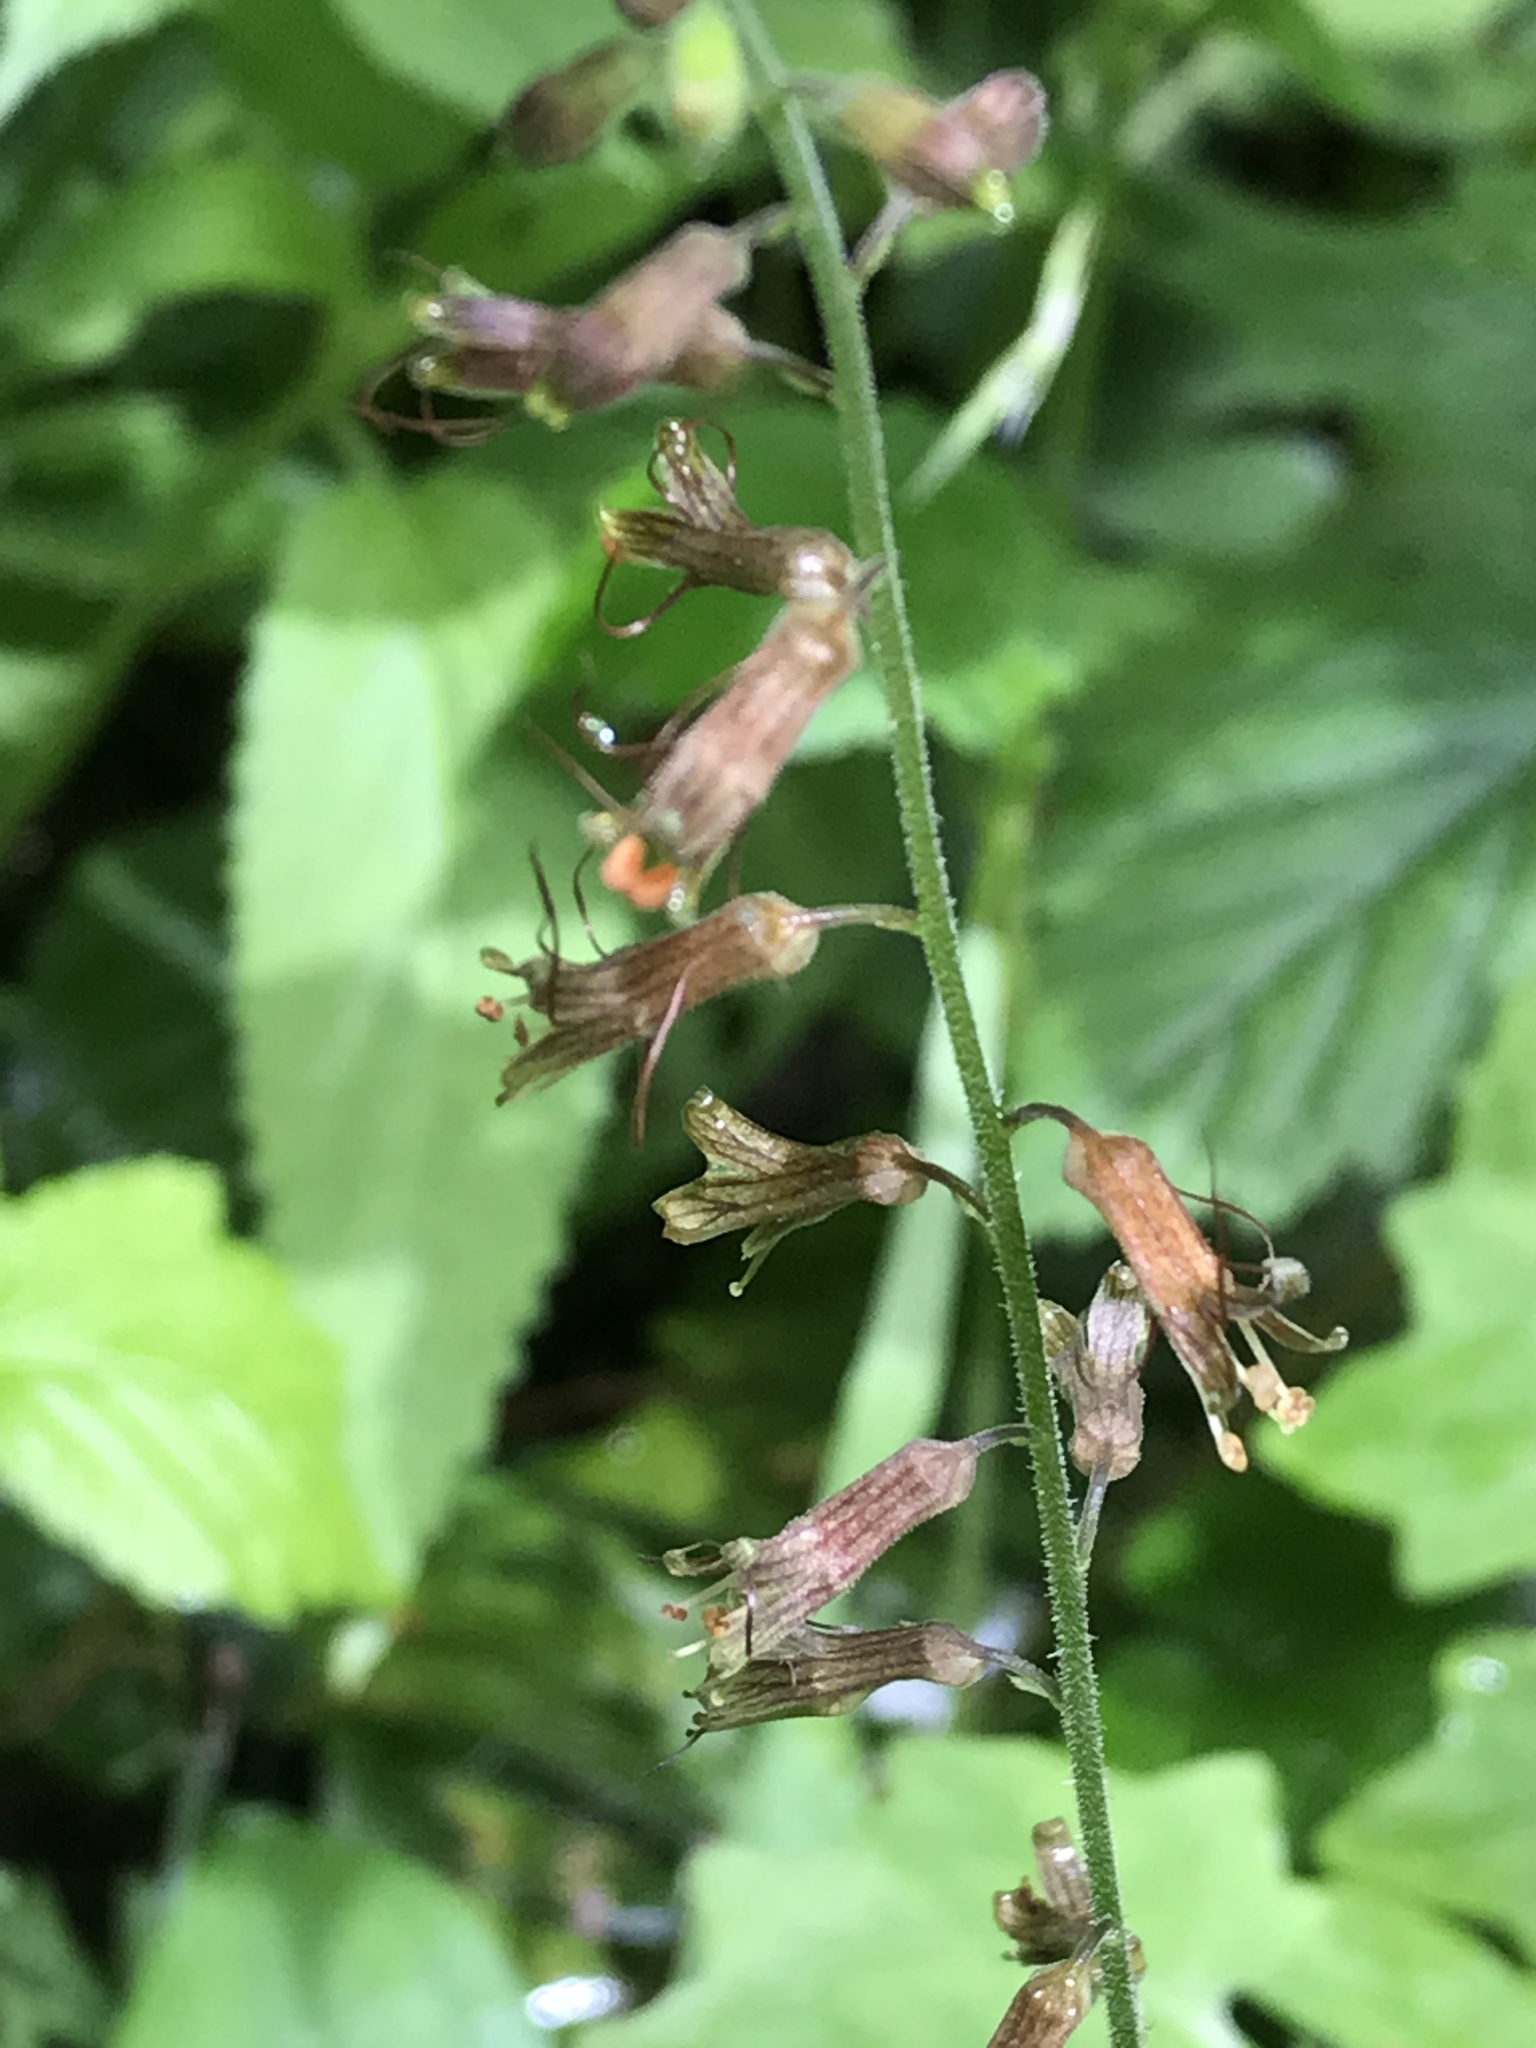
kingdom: Plantae
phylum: Tracheophyta
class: Magnoliopsida
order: Saxifragales
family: Saxifragaceae
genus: Tolmiea
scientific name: Tolmiea menziesii
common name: Pick-a-back-plant
